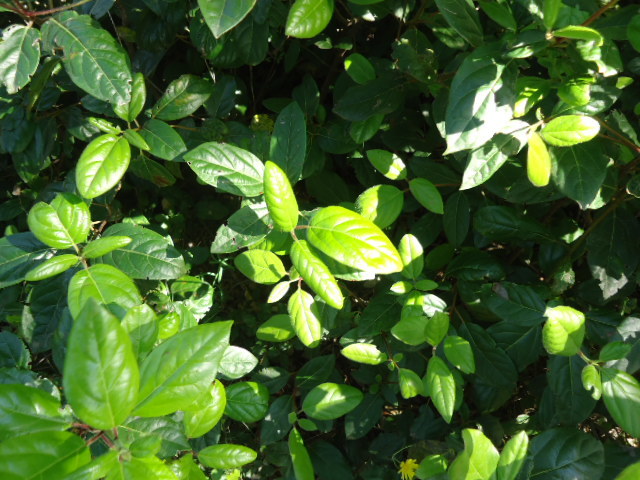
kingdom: Plantae
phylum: Tracheophyta
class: Magnoliopsida
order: Dipsacales
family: Viburnaceae
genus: Viburnum
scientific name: Viburnum tinus
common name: Laurustinus
